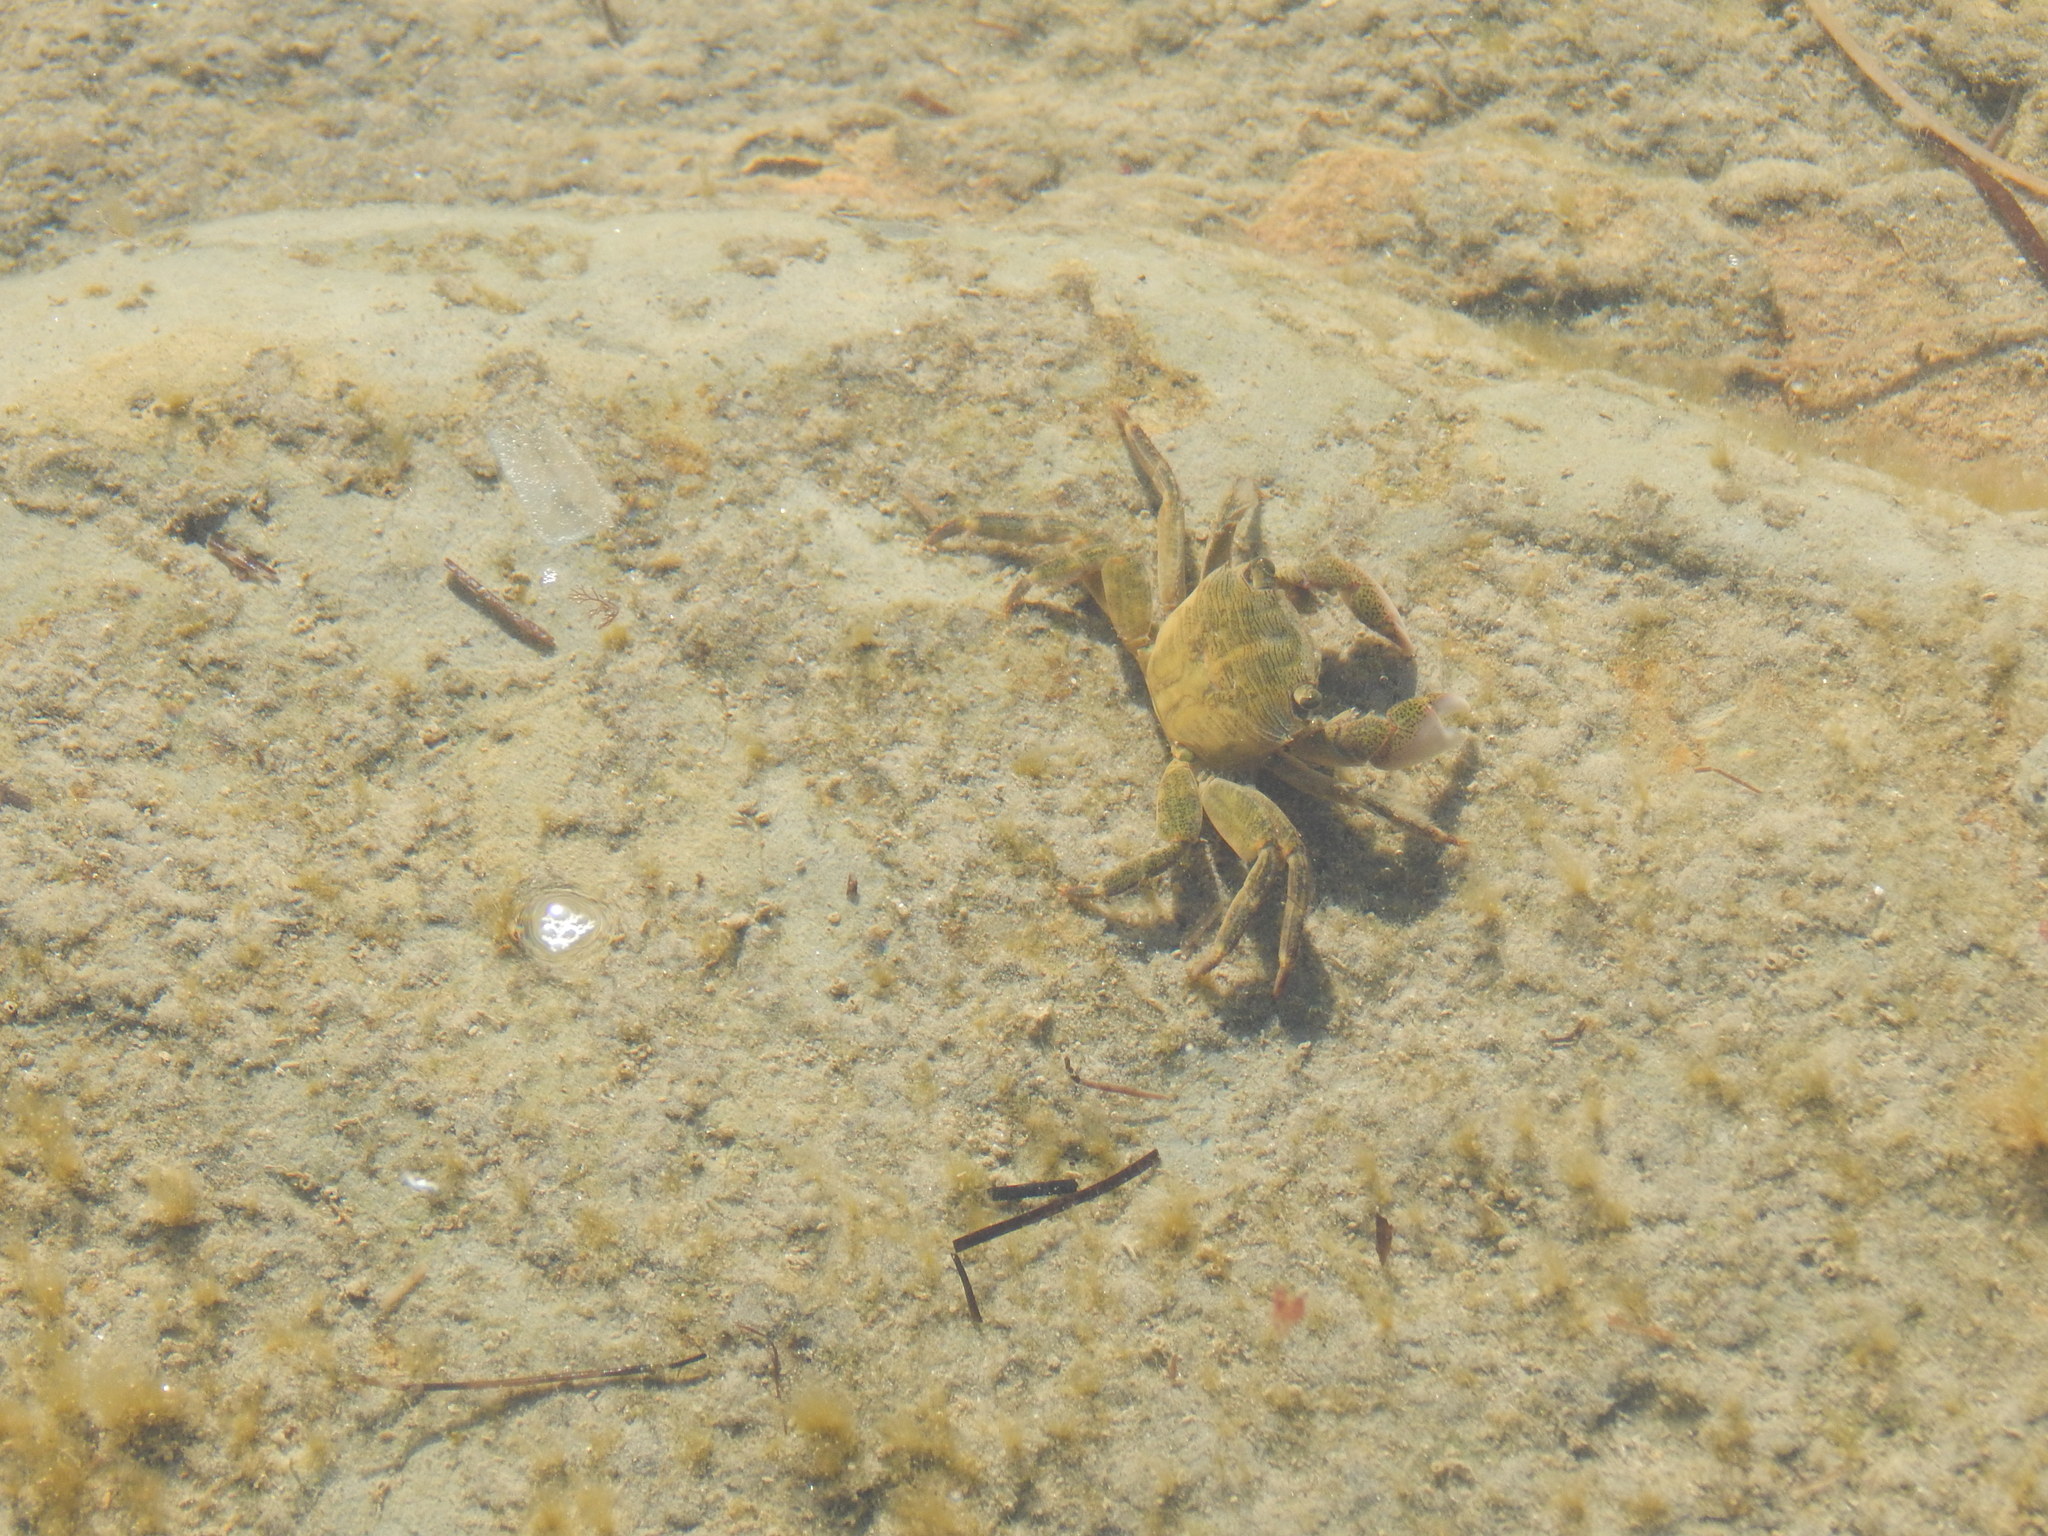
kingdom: Animalia
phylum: Arthropoda
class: Malacostraca
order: Decapoda
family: Grapsidae
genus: Pachygrapsus
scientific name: Pachygrapsus crassipes
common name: Striped shore crab
